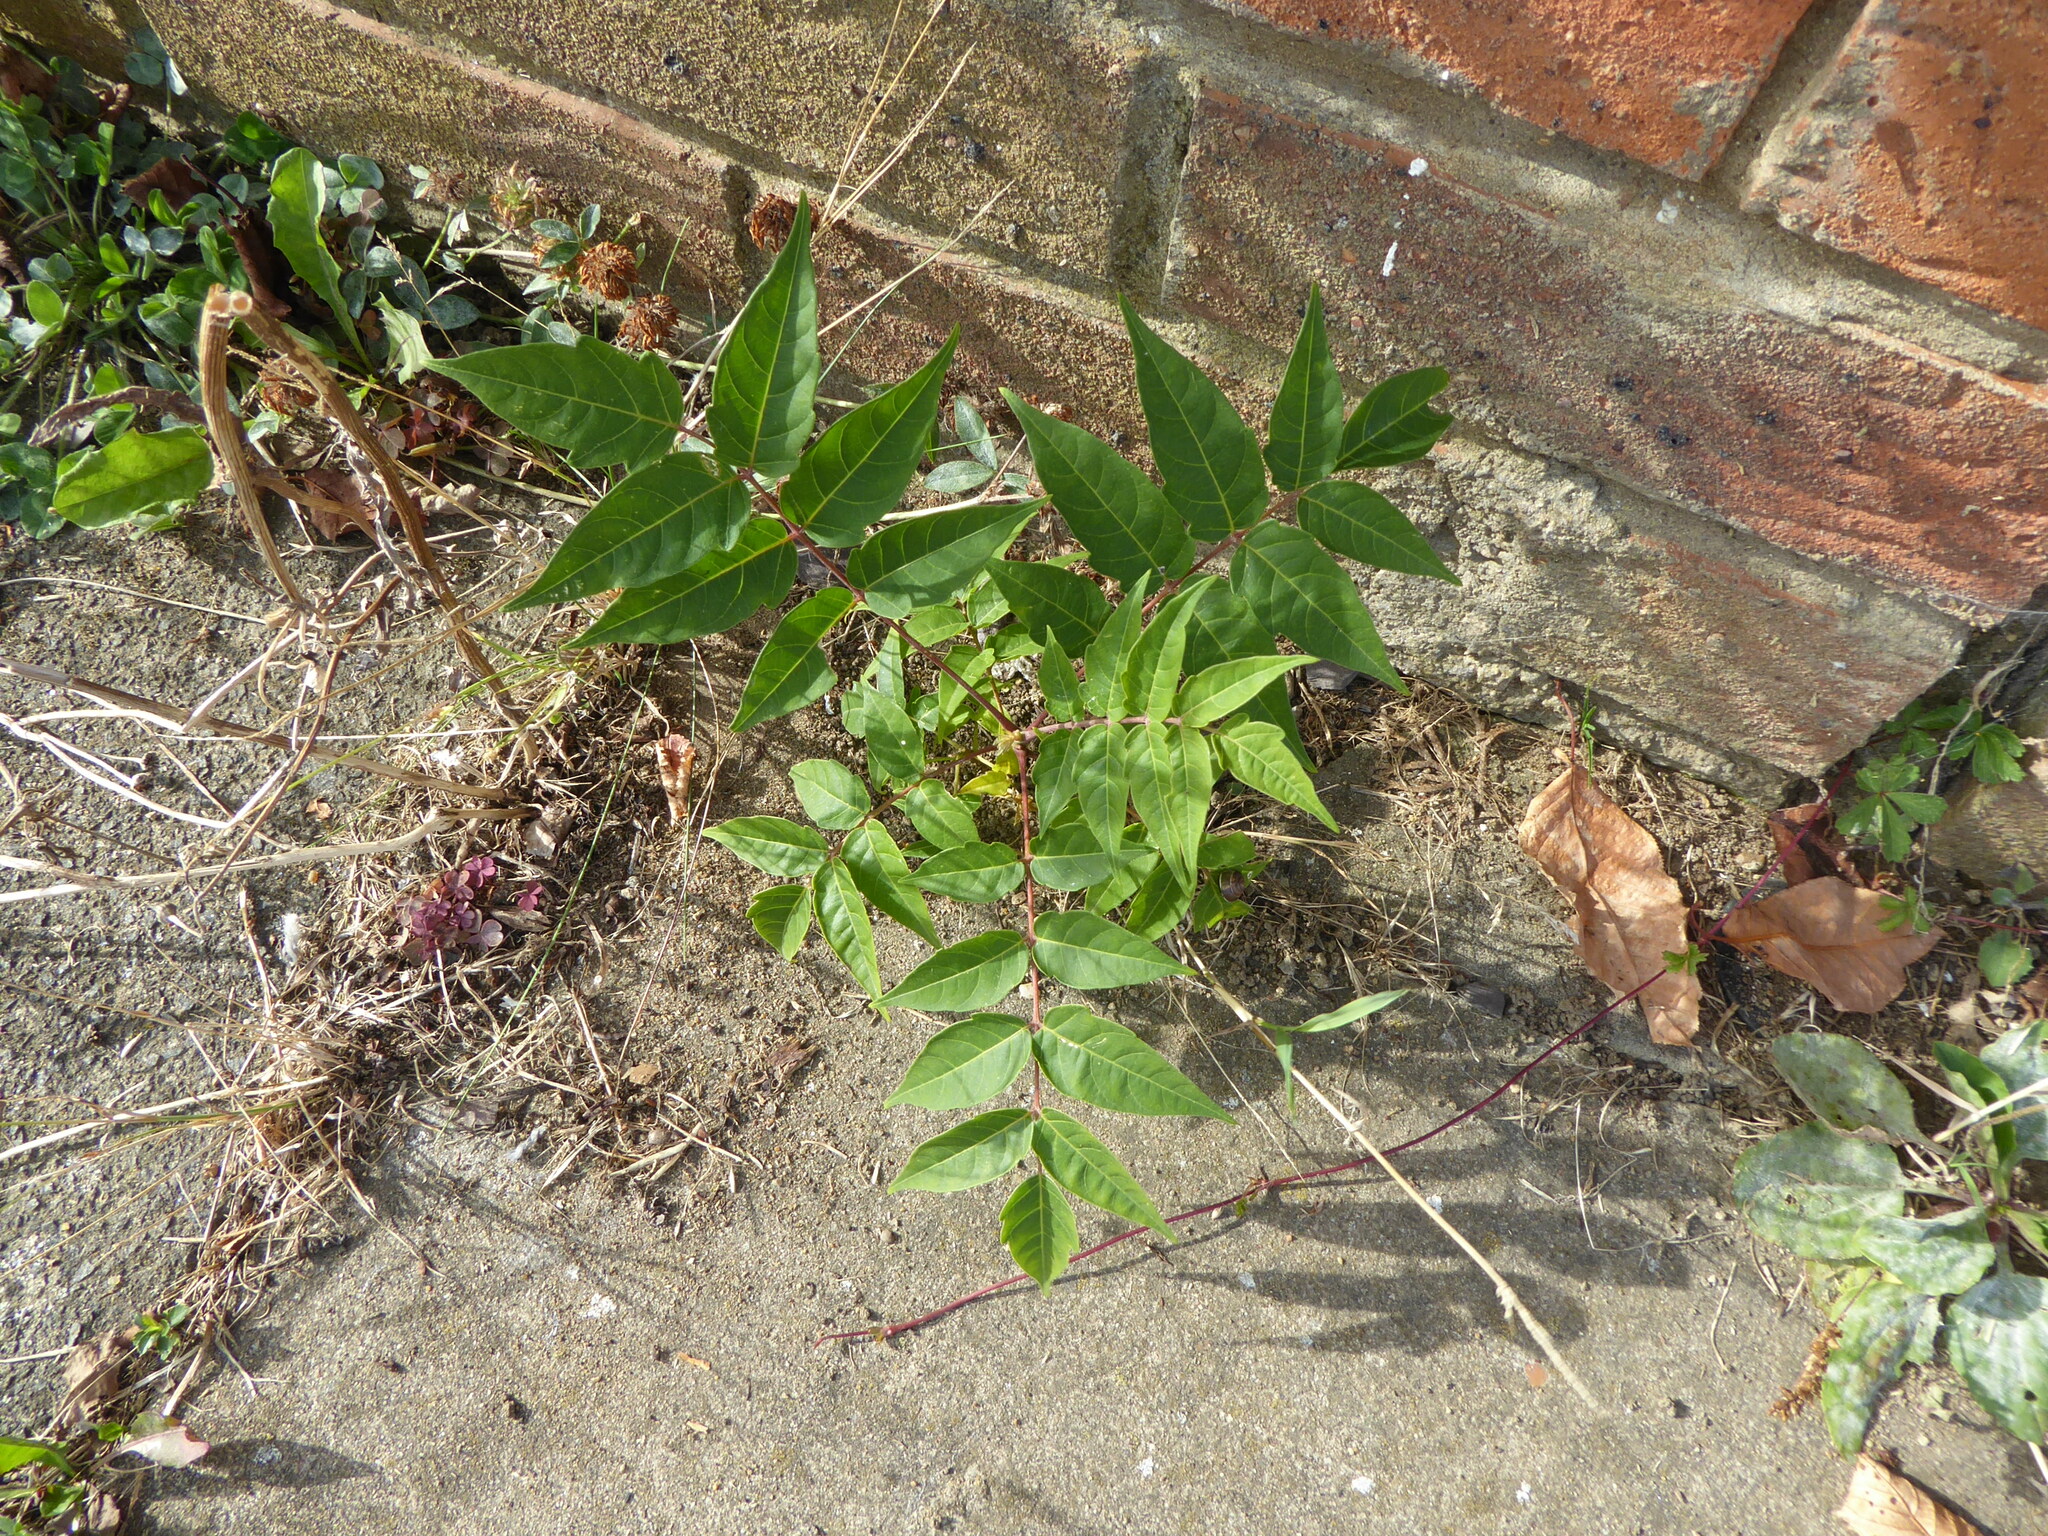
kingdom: Plantae
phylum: Tracheophyta
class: Magnoliopsida
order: Sapindales
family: Simaroubaceae
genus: Ailanthus
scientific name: Ailanthus altissima
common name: Tree-of-heaven
